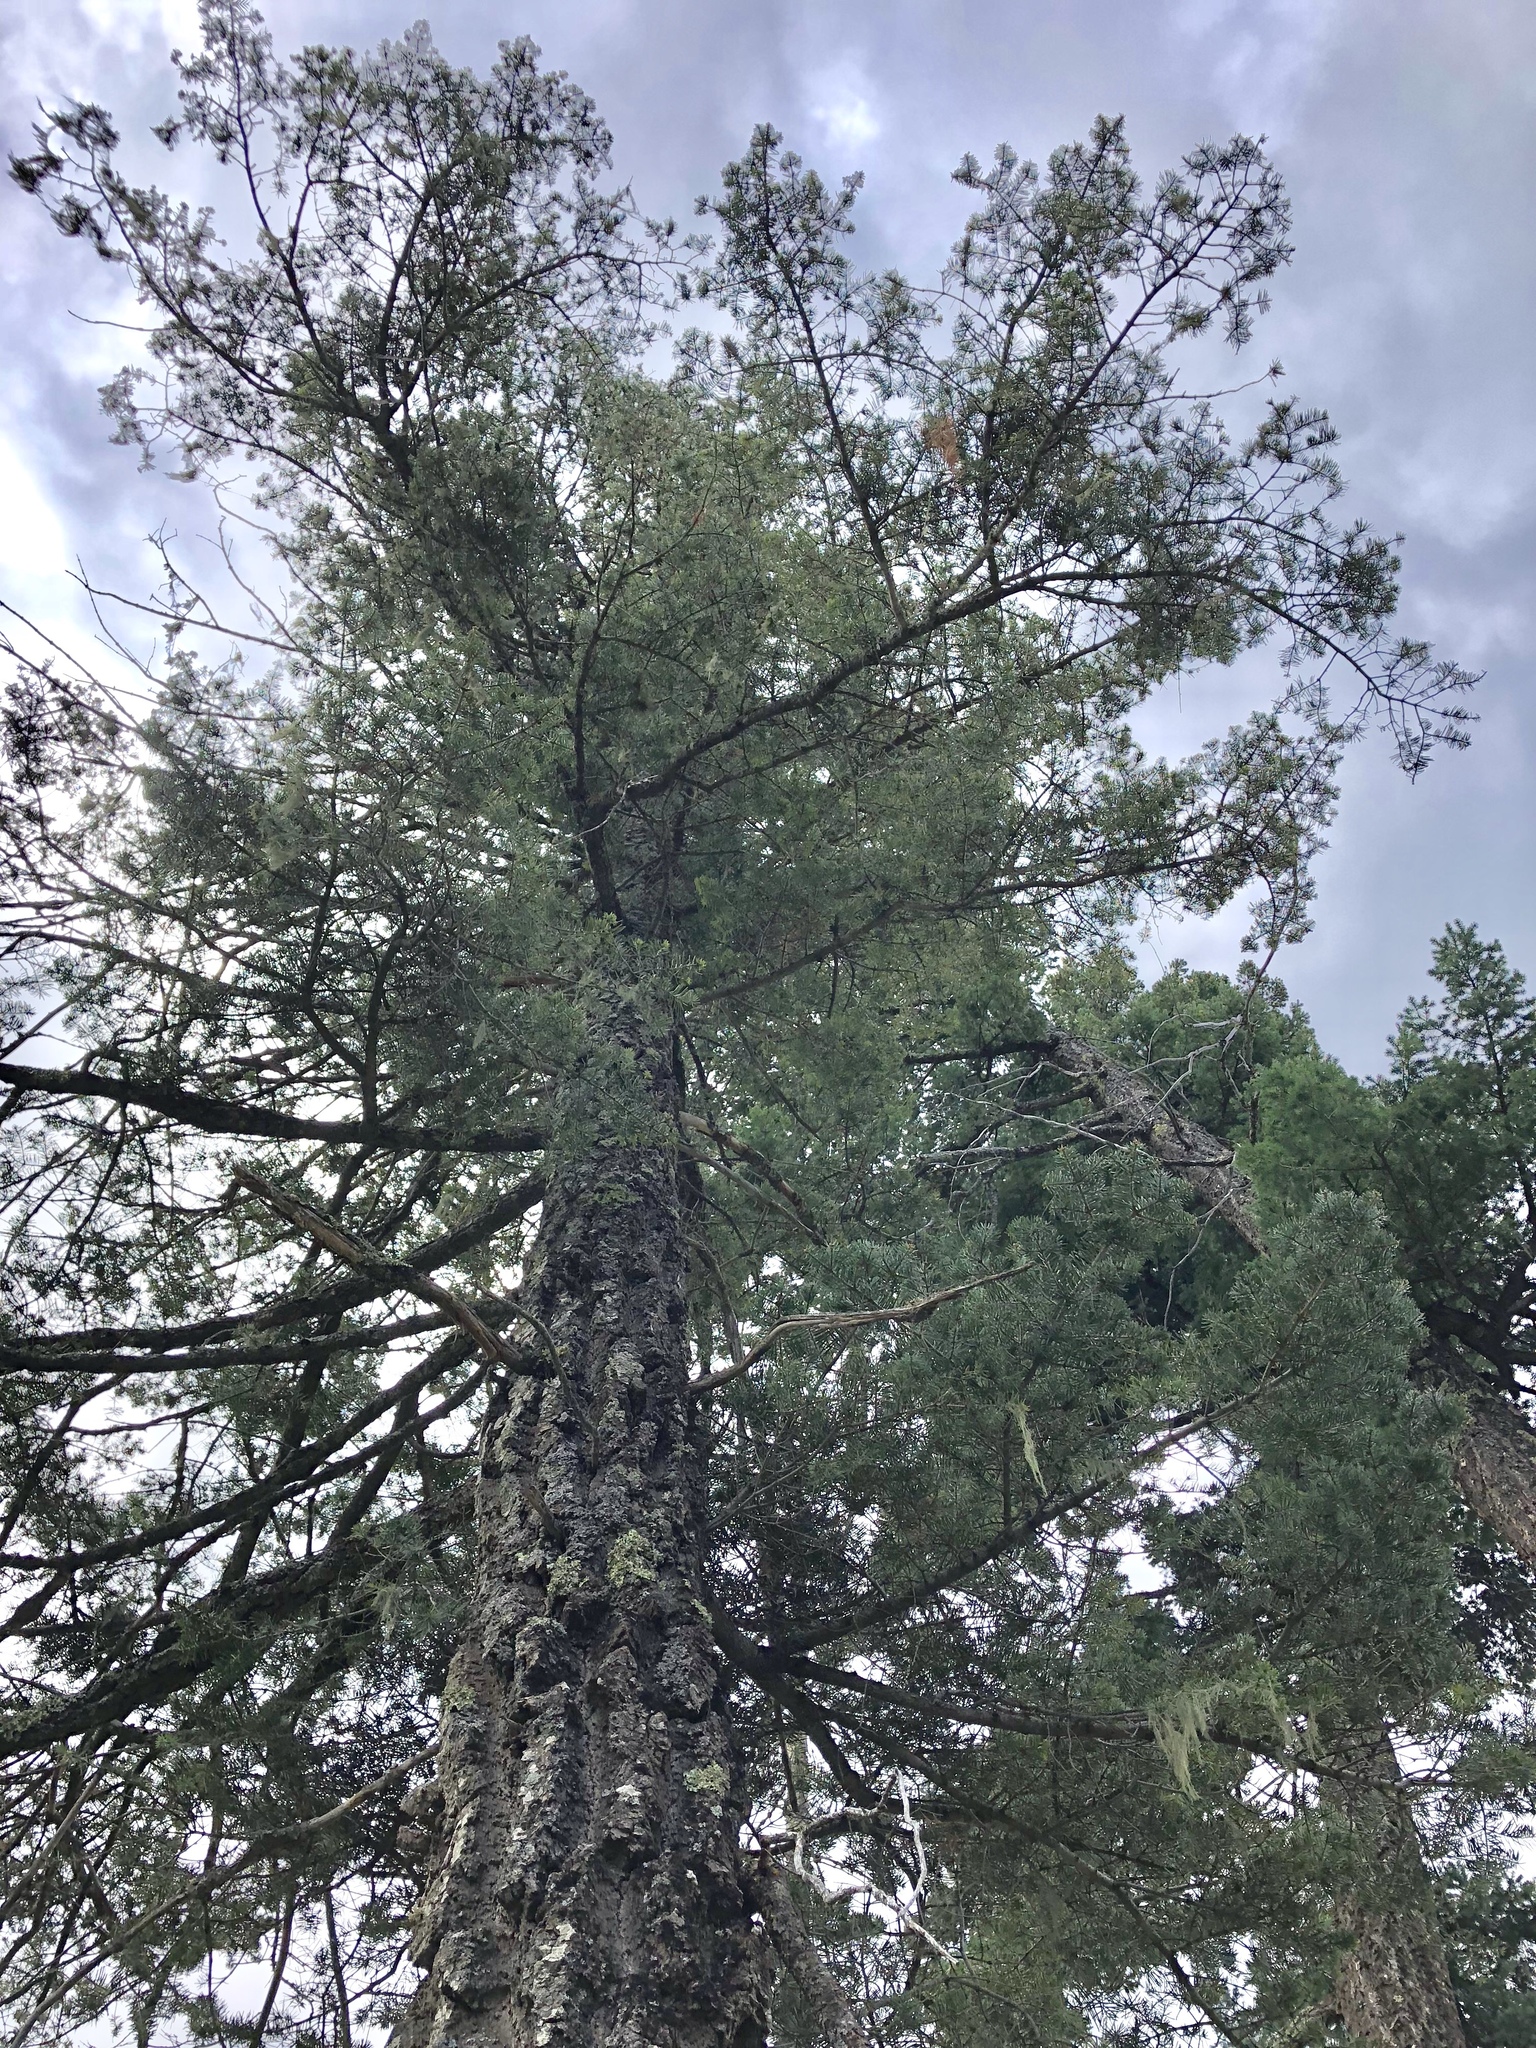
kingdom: Plantae
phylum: Tracheophyta
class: Pinopsida
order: Pinales
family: Pinaceae
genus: Pseudotsuga
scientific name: Pseudotsuga menziesii
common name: Douglas fir
